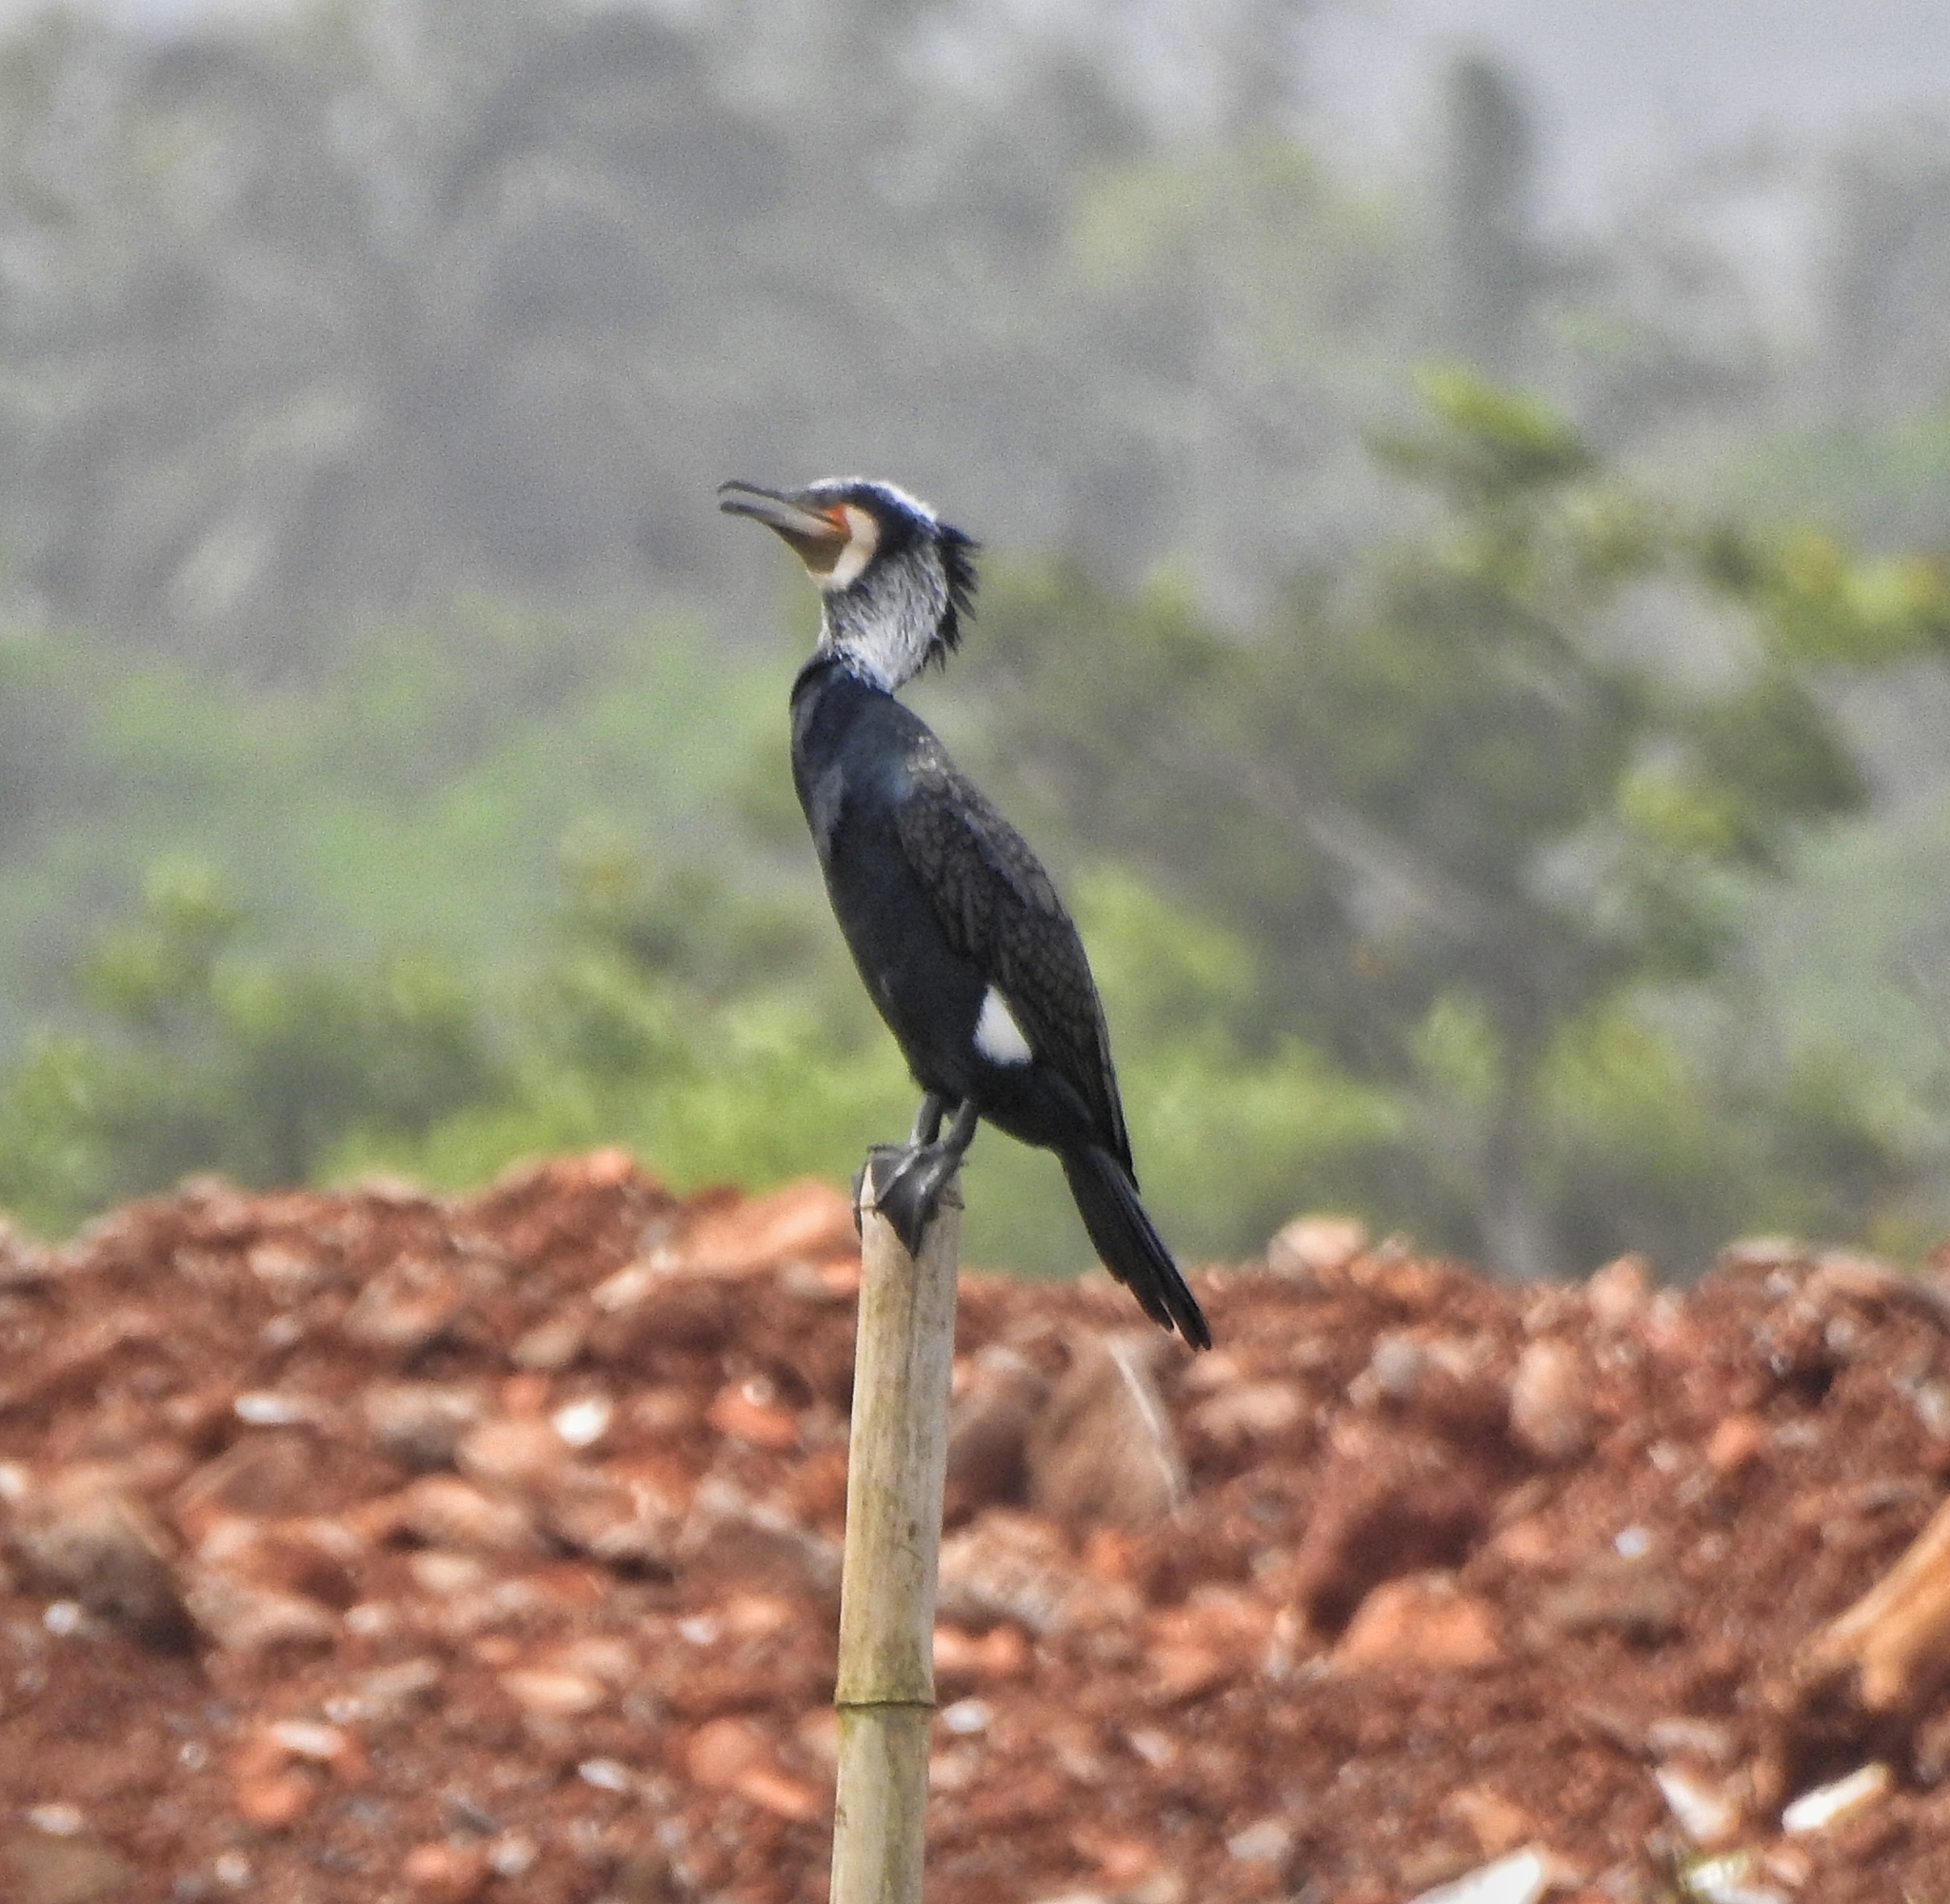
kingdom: Animalia
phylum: Chordata
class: Aves
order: Suliformes
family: Phalacrocoracidae
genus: Phalacrocorax
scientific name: Phalacrocorax carbo
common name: Great cormorant
